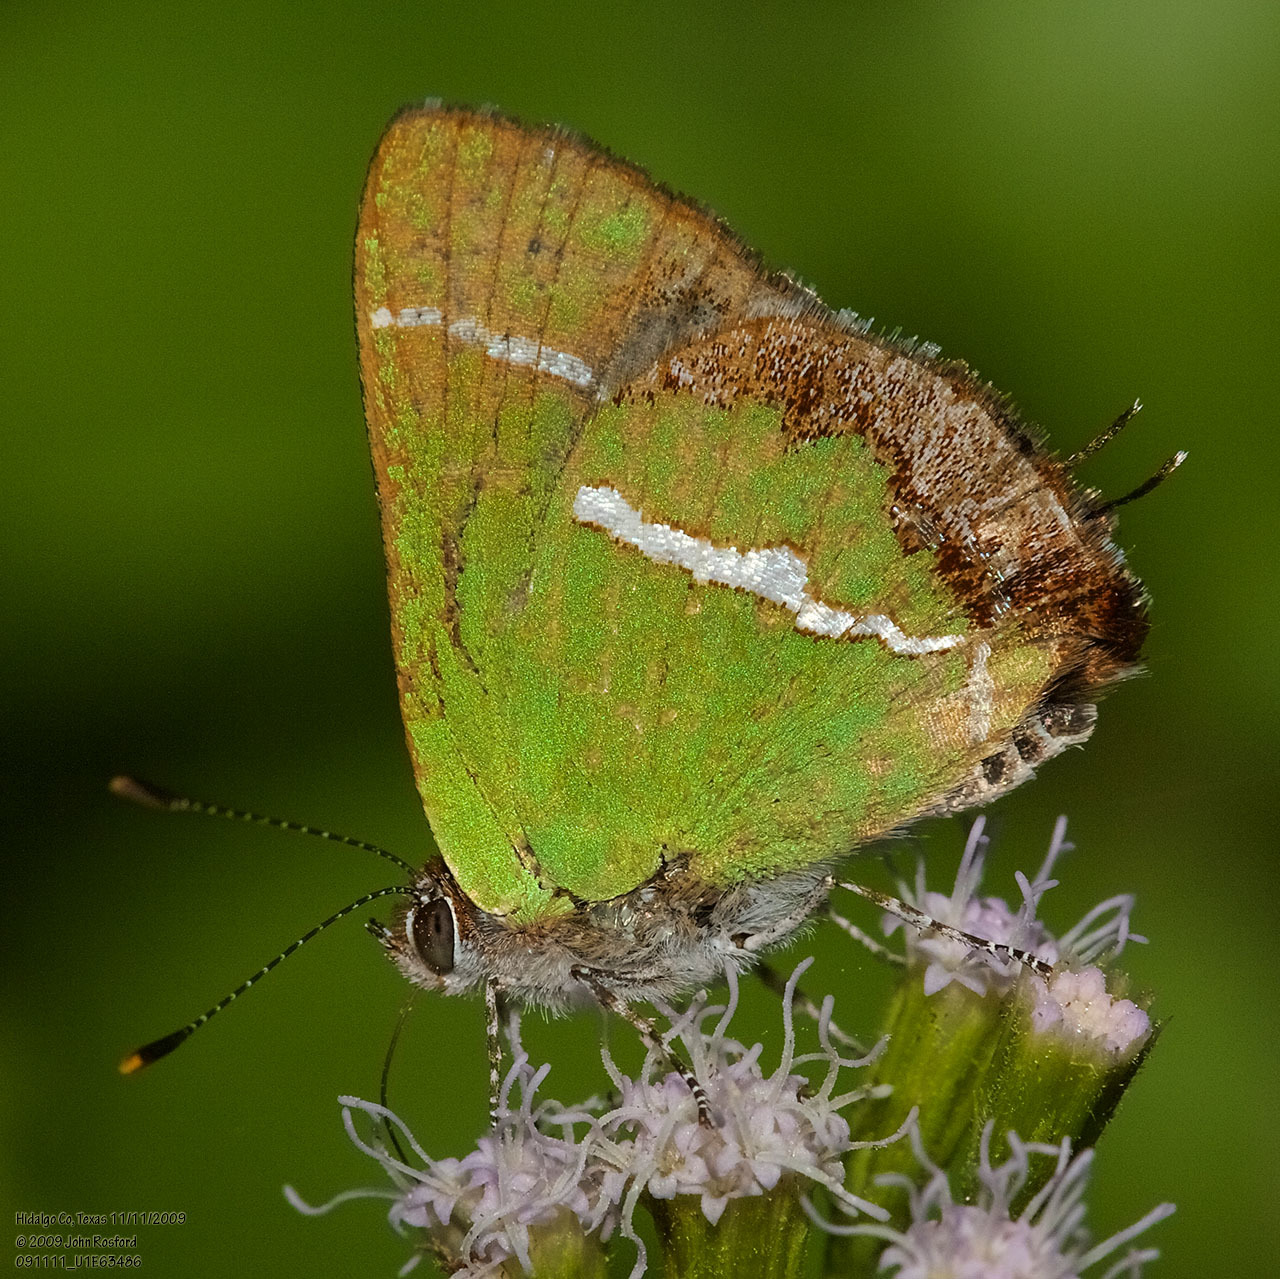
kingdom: Animalia
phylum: Arthropoda
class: Insecta
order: Lepidoptera
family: Lycaenidae
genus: Chlorostrymon
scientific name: Chlorostrymon simaethis
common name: Silver-banded hairstreak
